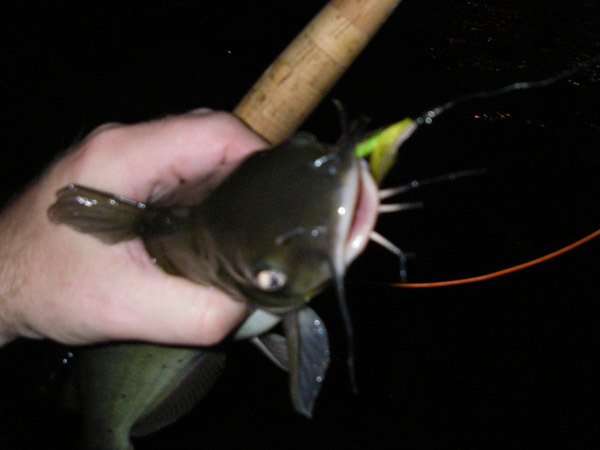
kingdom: Animalia
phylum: Chordata
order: Siluriformes
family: Ictaluridae
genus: Ictalurus
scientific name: Ictalurus punctatus
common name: Channel catfish
